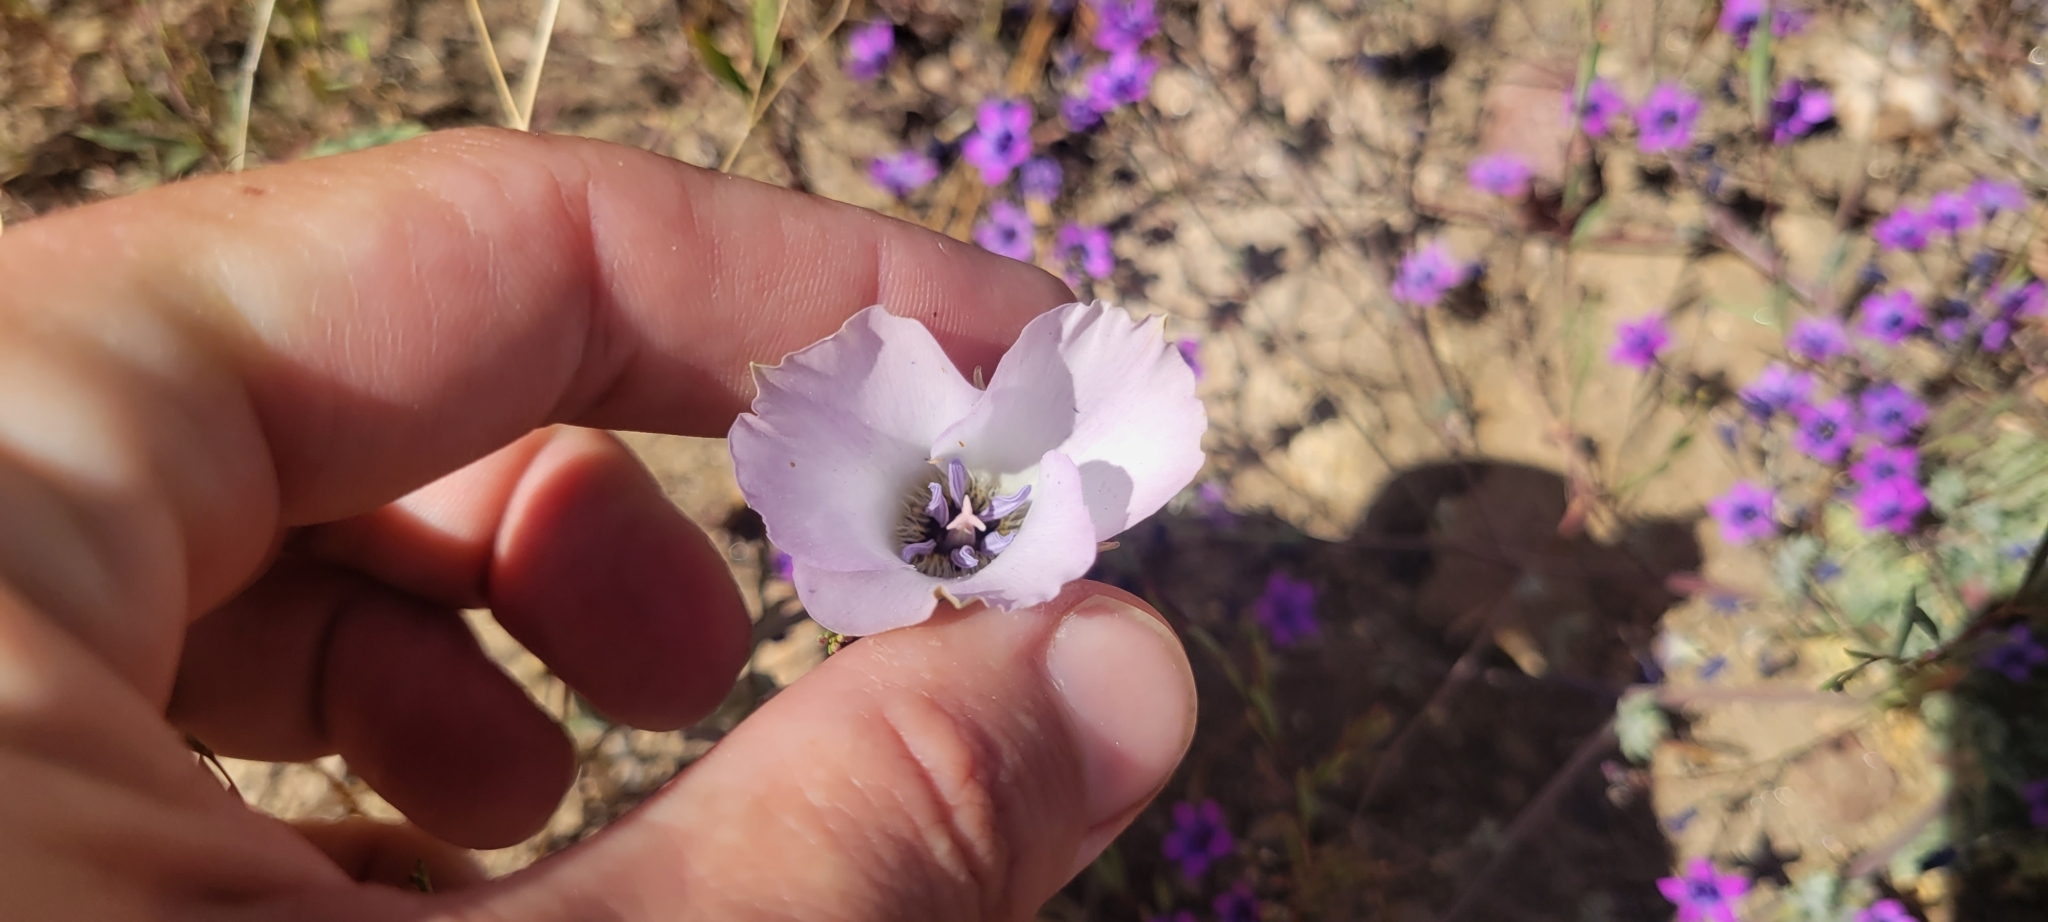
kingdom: Plantae
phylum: Tracheophyta
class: Liliopsida
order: Liliales
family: Liliaceae
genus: Calochortus
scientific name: Calochortus invenustus
